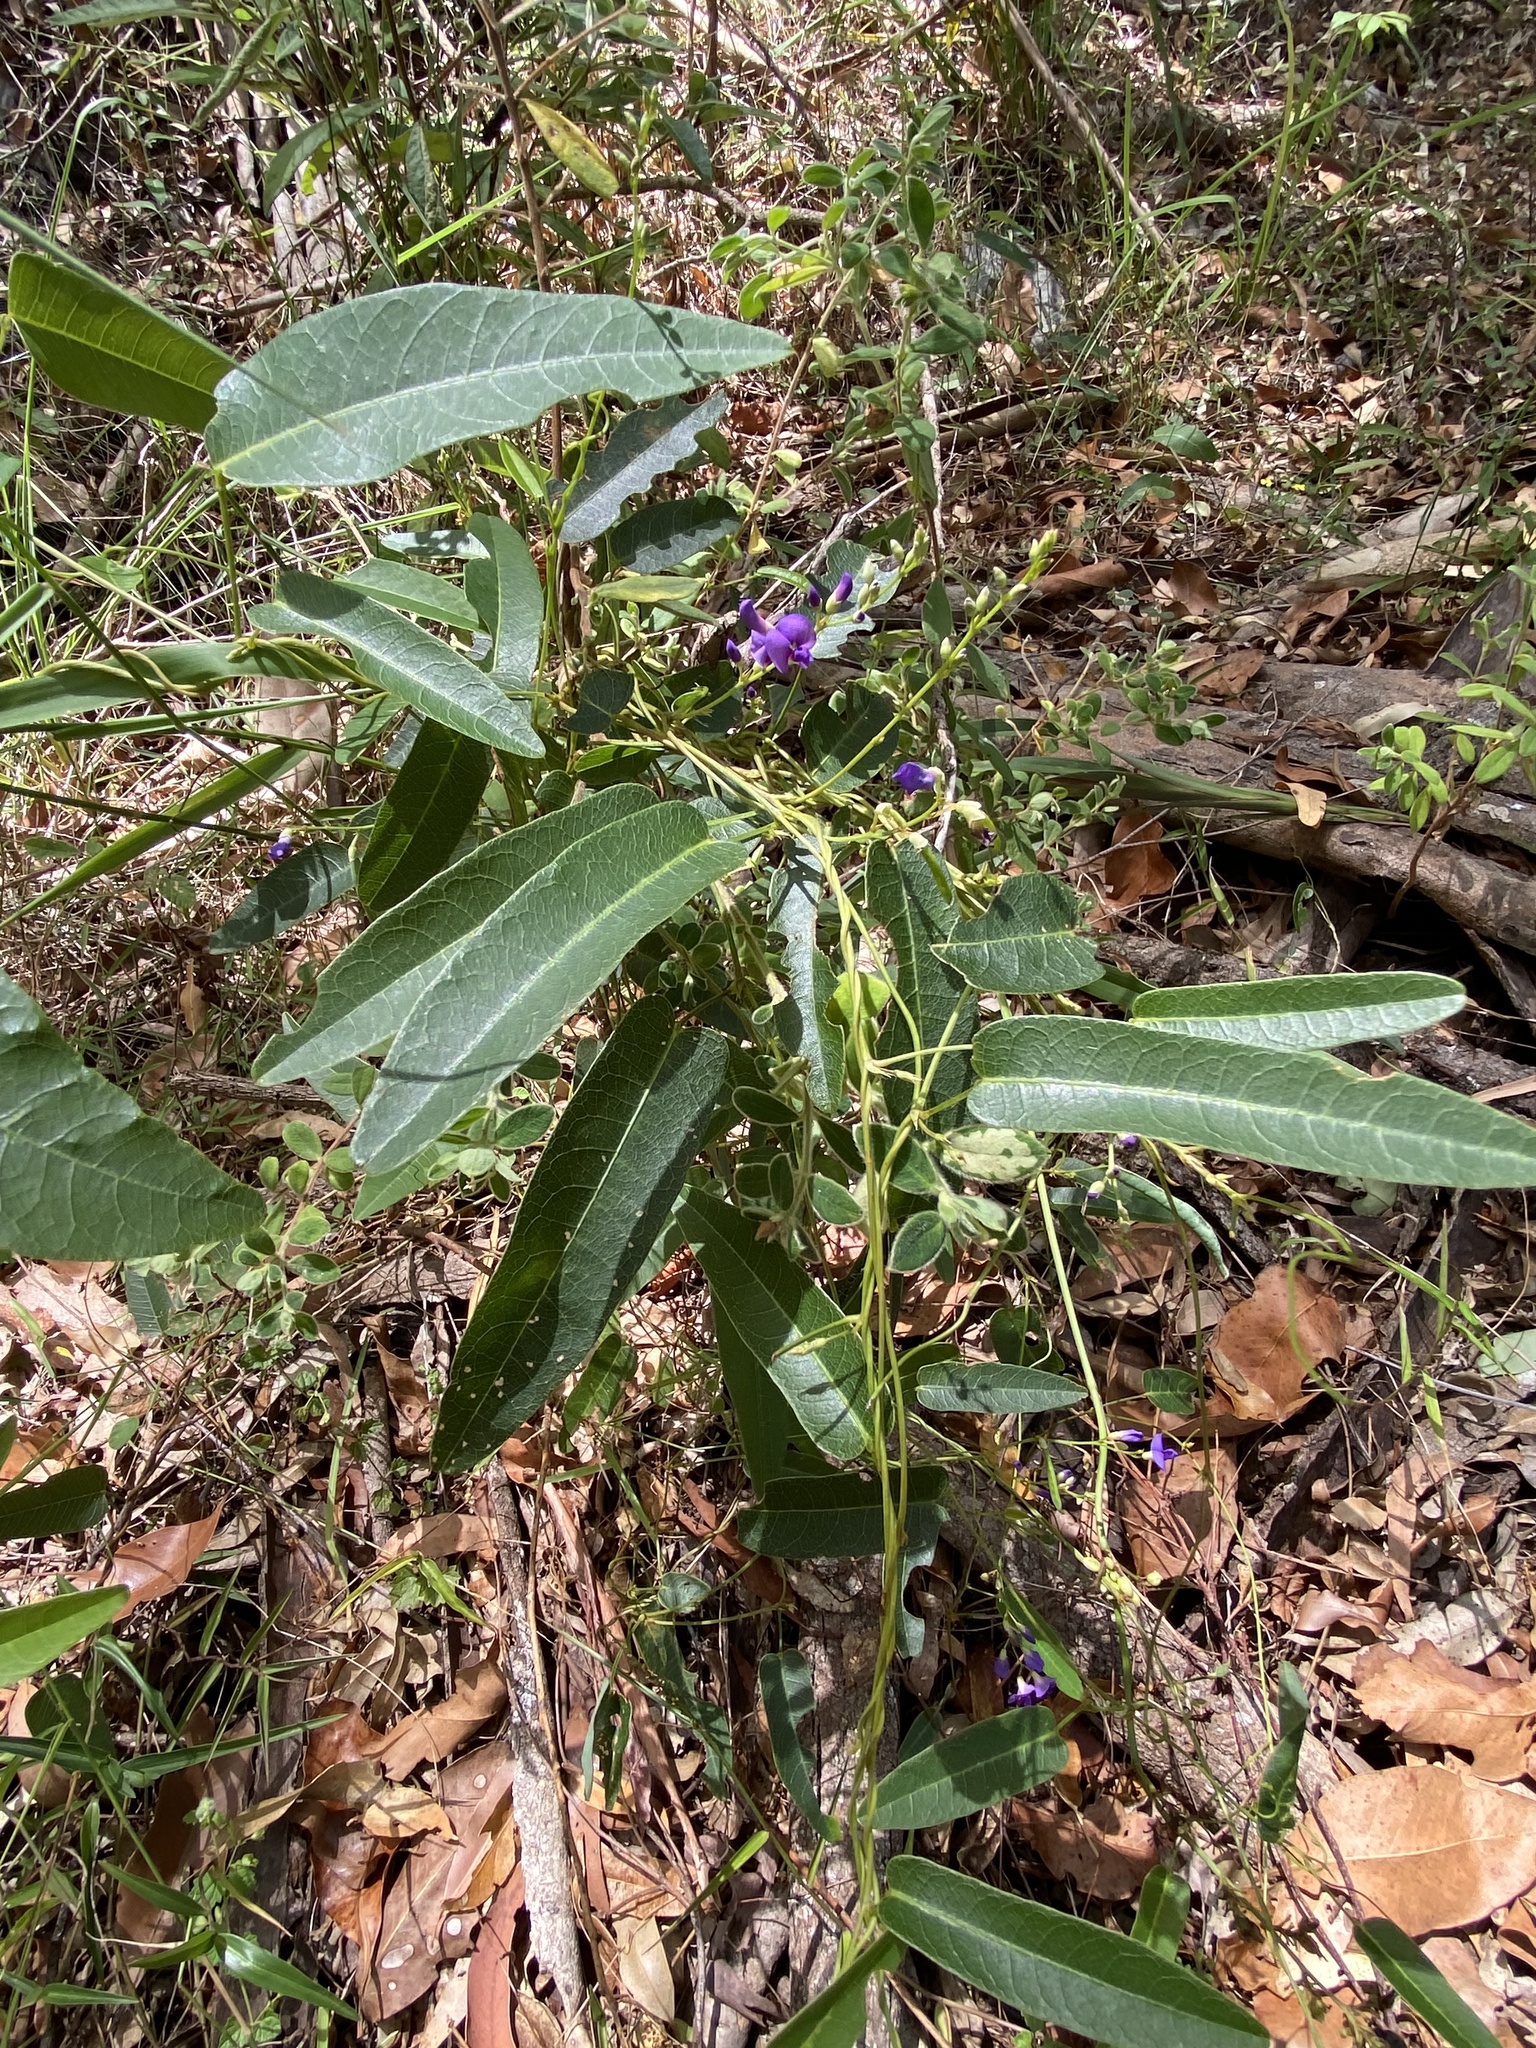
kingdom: Plantae
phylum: Tracheophyta
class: Magnoliopsida
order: Fabales
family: Fabaceae
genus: Hardenbergia
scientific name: Hardenbergia violacea
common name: Coral-pea
